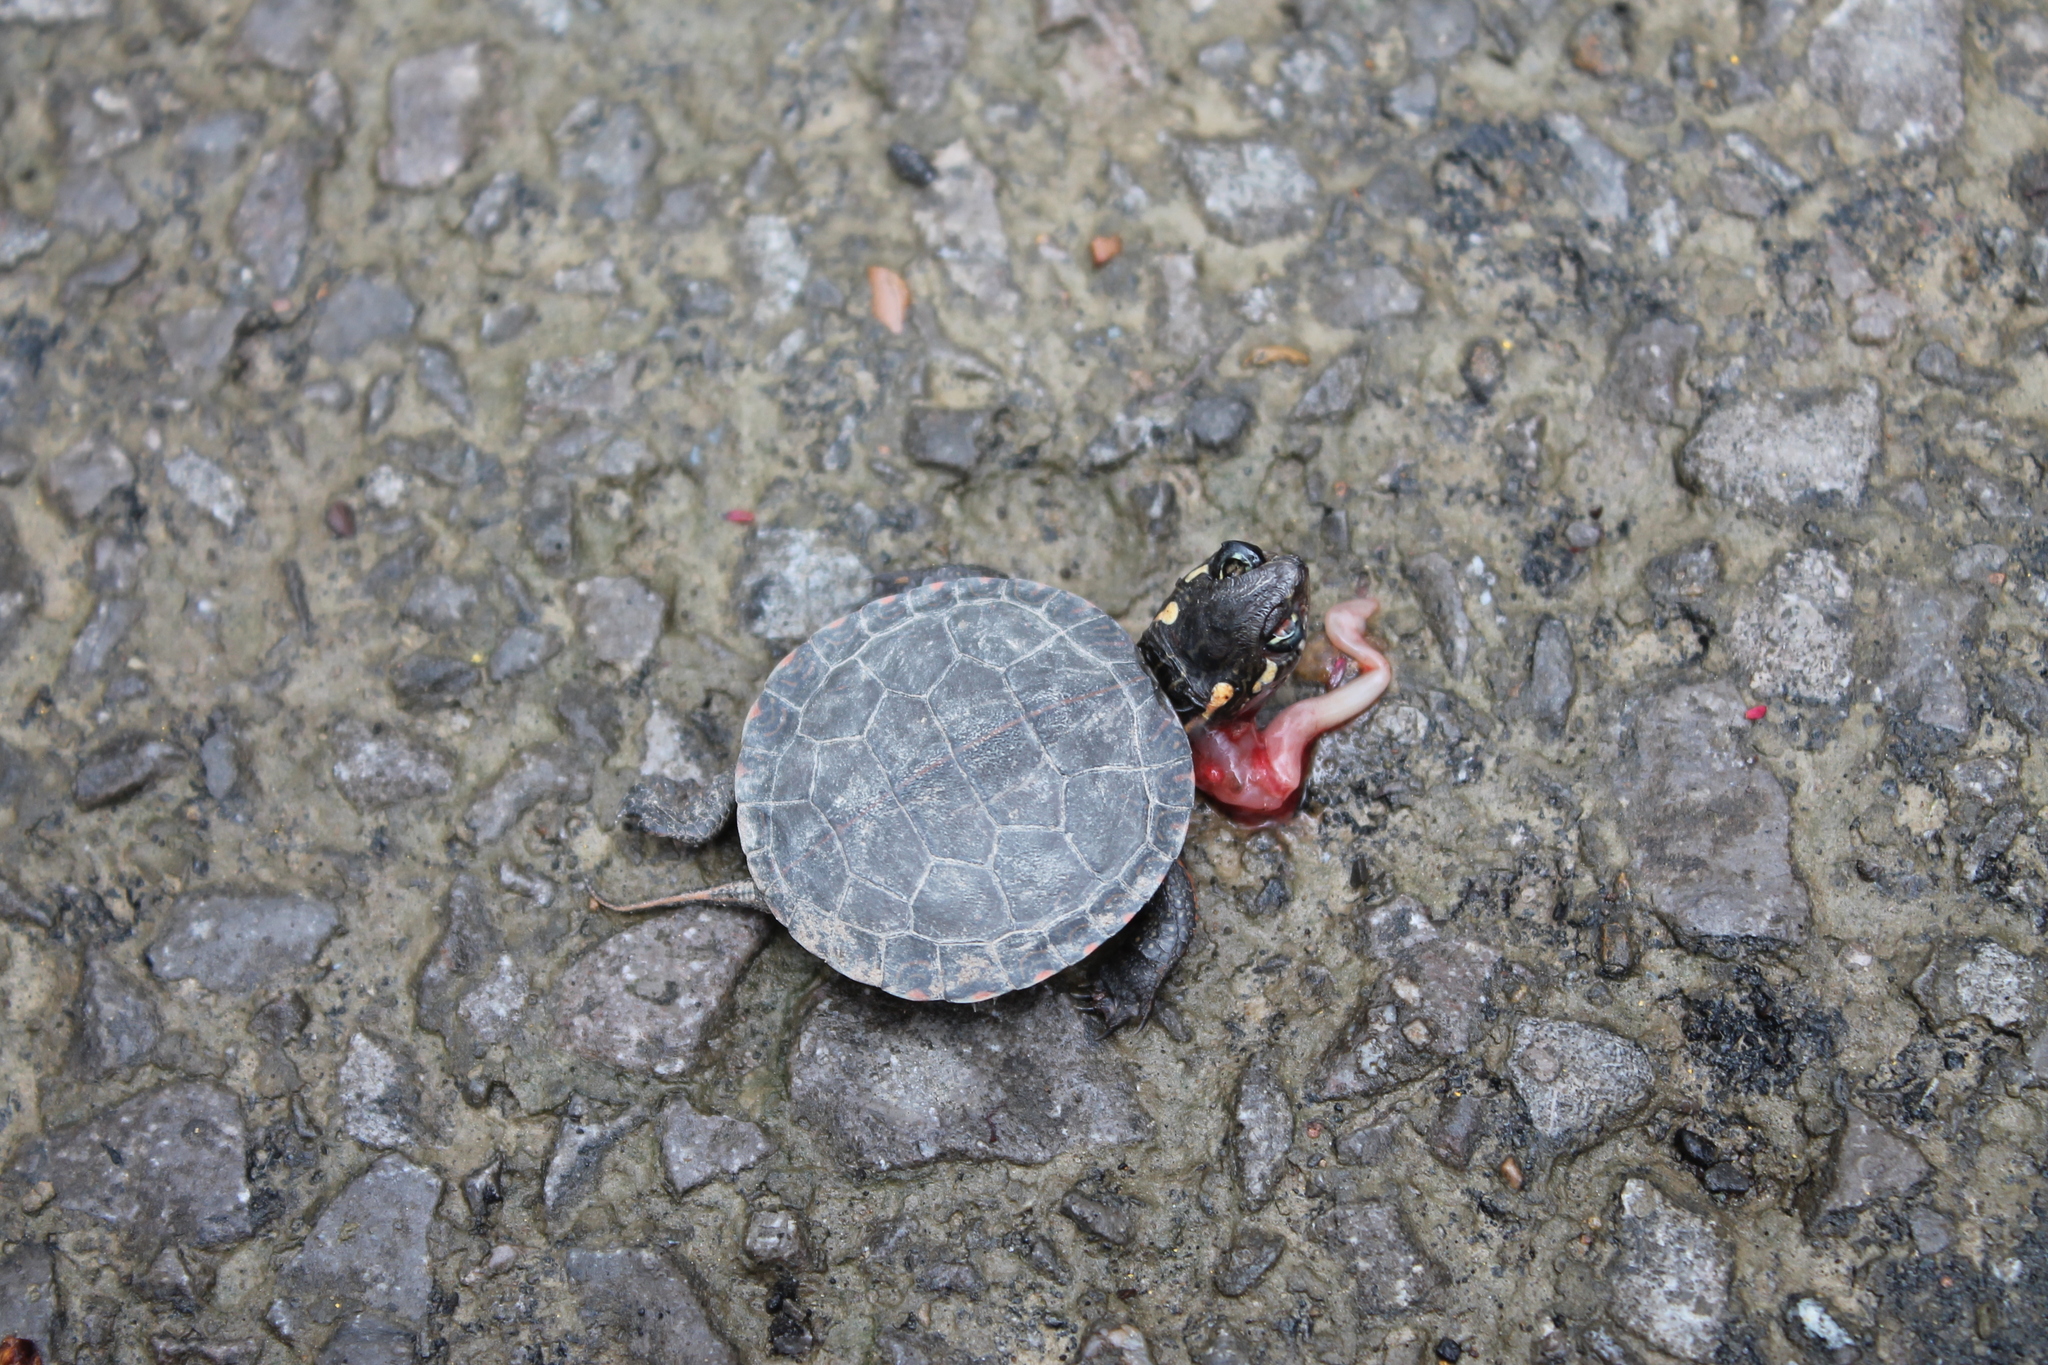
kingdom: Animalia
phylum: Chordata
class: Testudines
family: Emydidae
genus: Chrysemys
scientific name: Chrysemys picta
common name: Painted turtle
